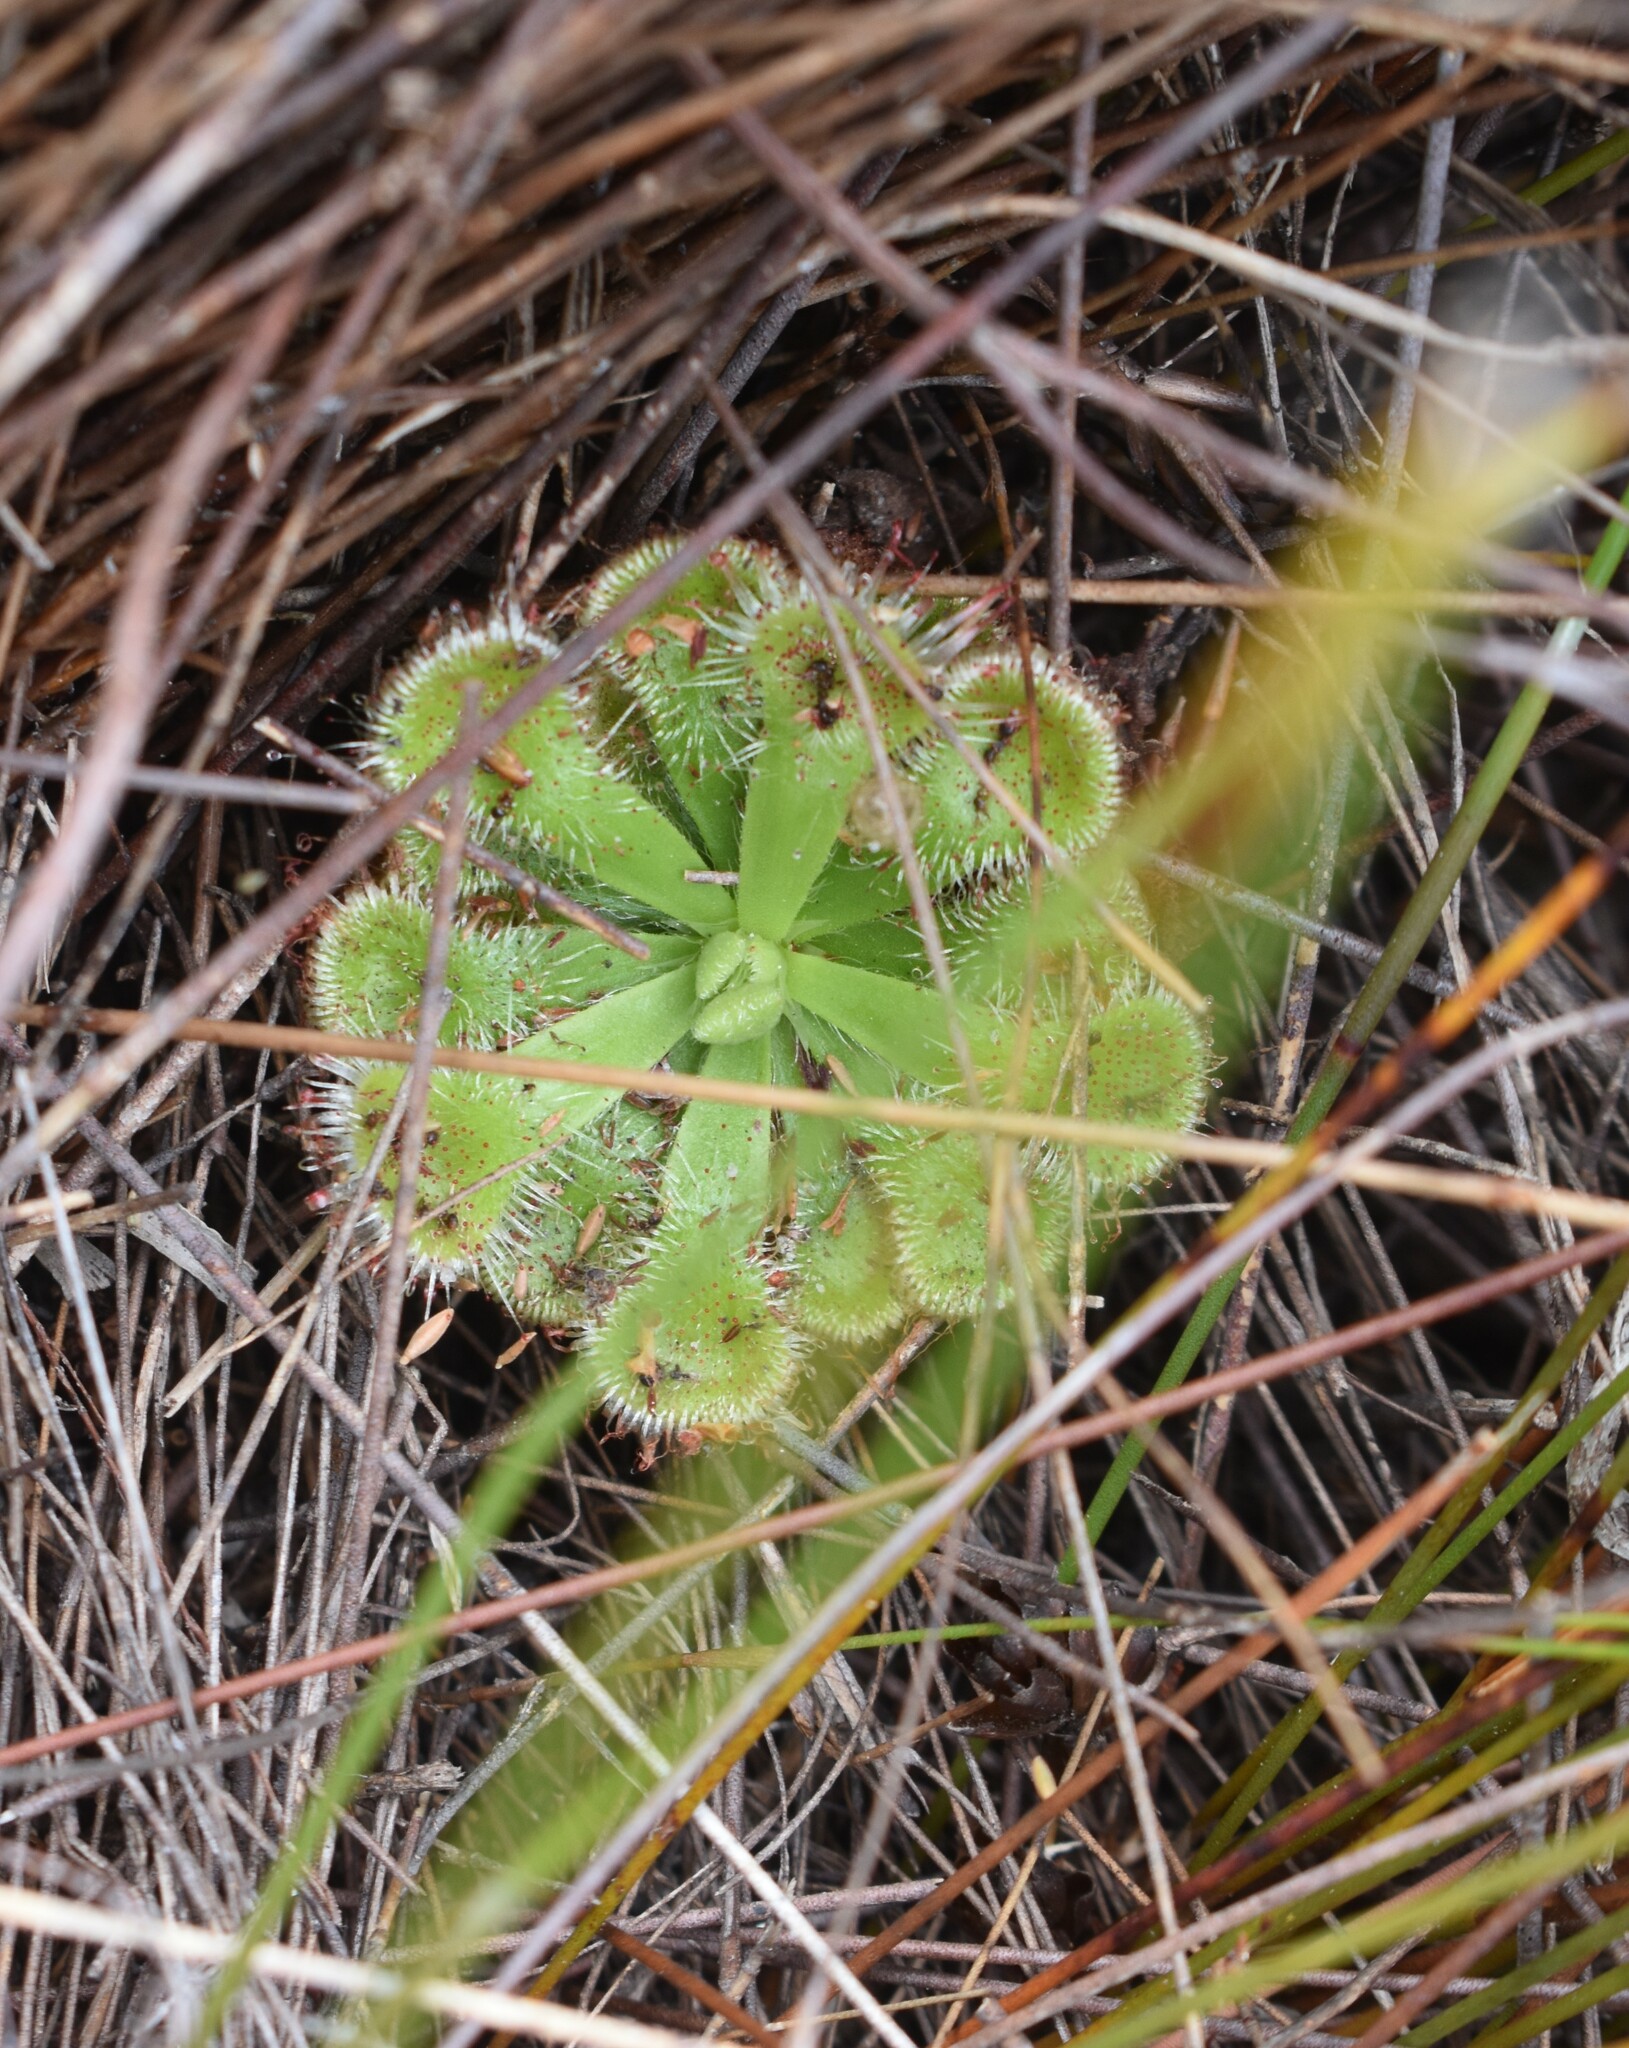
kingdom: Plantae
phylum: Tracheophyta
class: Magnoliopsida
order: Caryophyllales
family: Droseraceae
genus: Drosera
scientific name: Drosera xerophila
